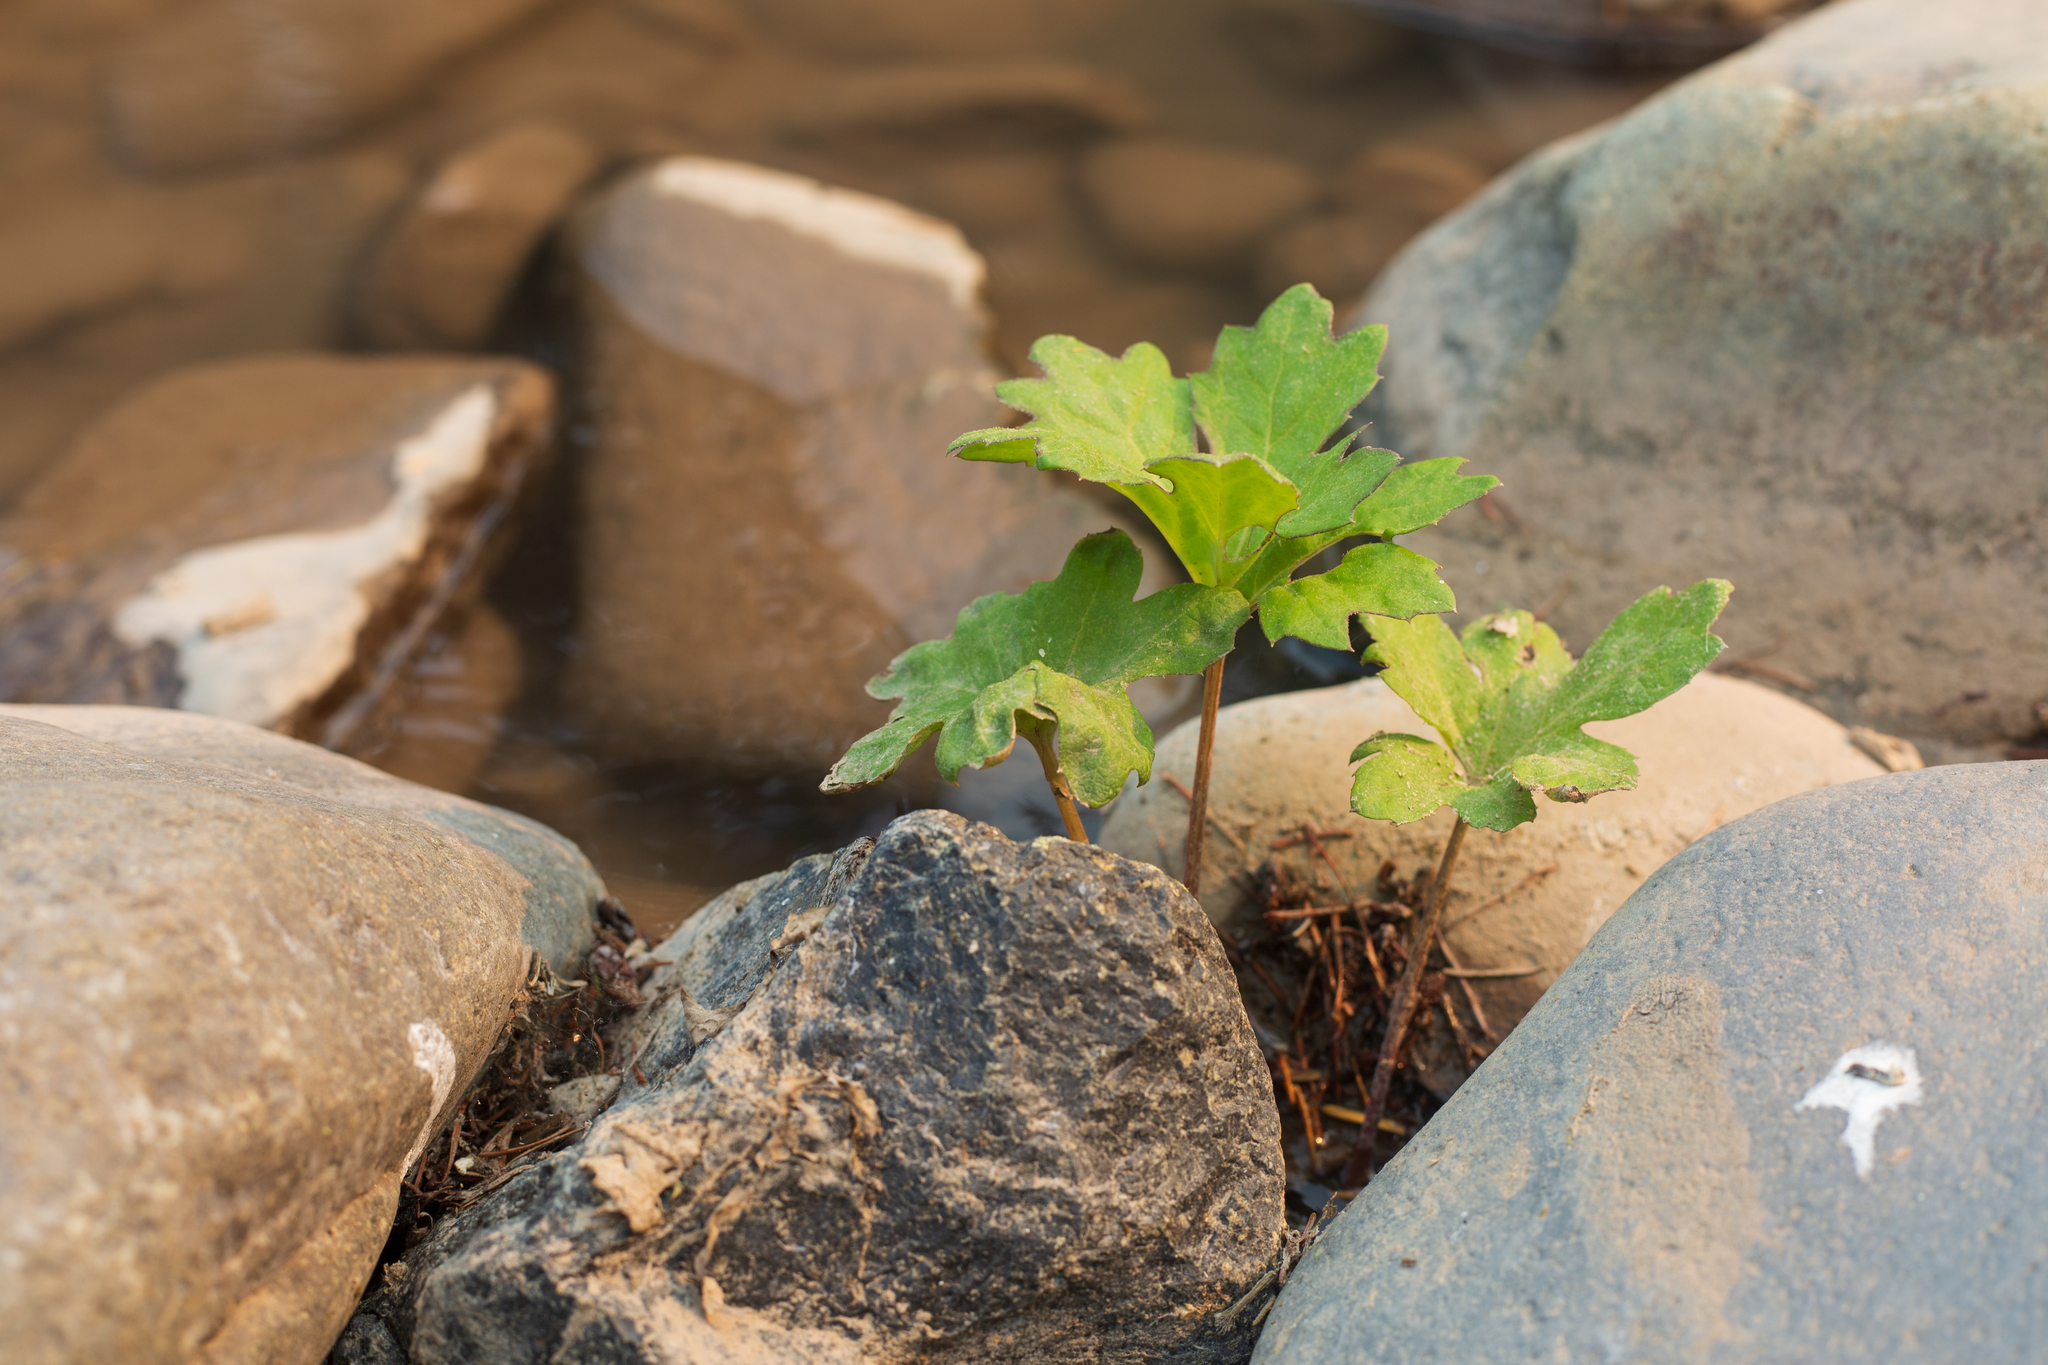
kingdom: Plantae
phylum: Tracheophyta
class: Magnoliopsida
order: Asterales
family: Asteraceae
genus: Petasites
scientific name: Petasites frigidus
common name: Arctic butterbur
